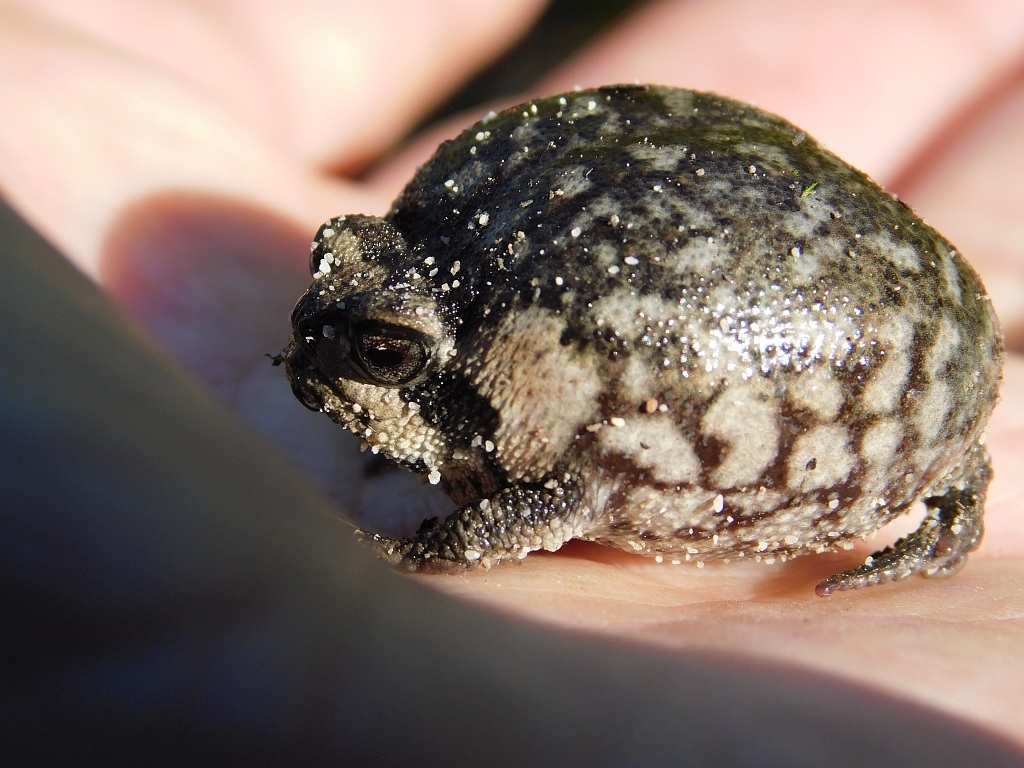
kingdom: Animalia
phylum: Chordata
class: Amphibia
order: Anura
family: Brevicipitidae
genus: Breviceps
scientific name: Breviceps montanus
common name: Mountain rain frog
